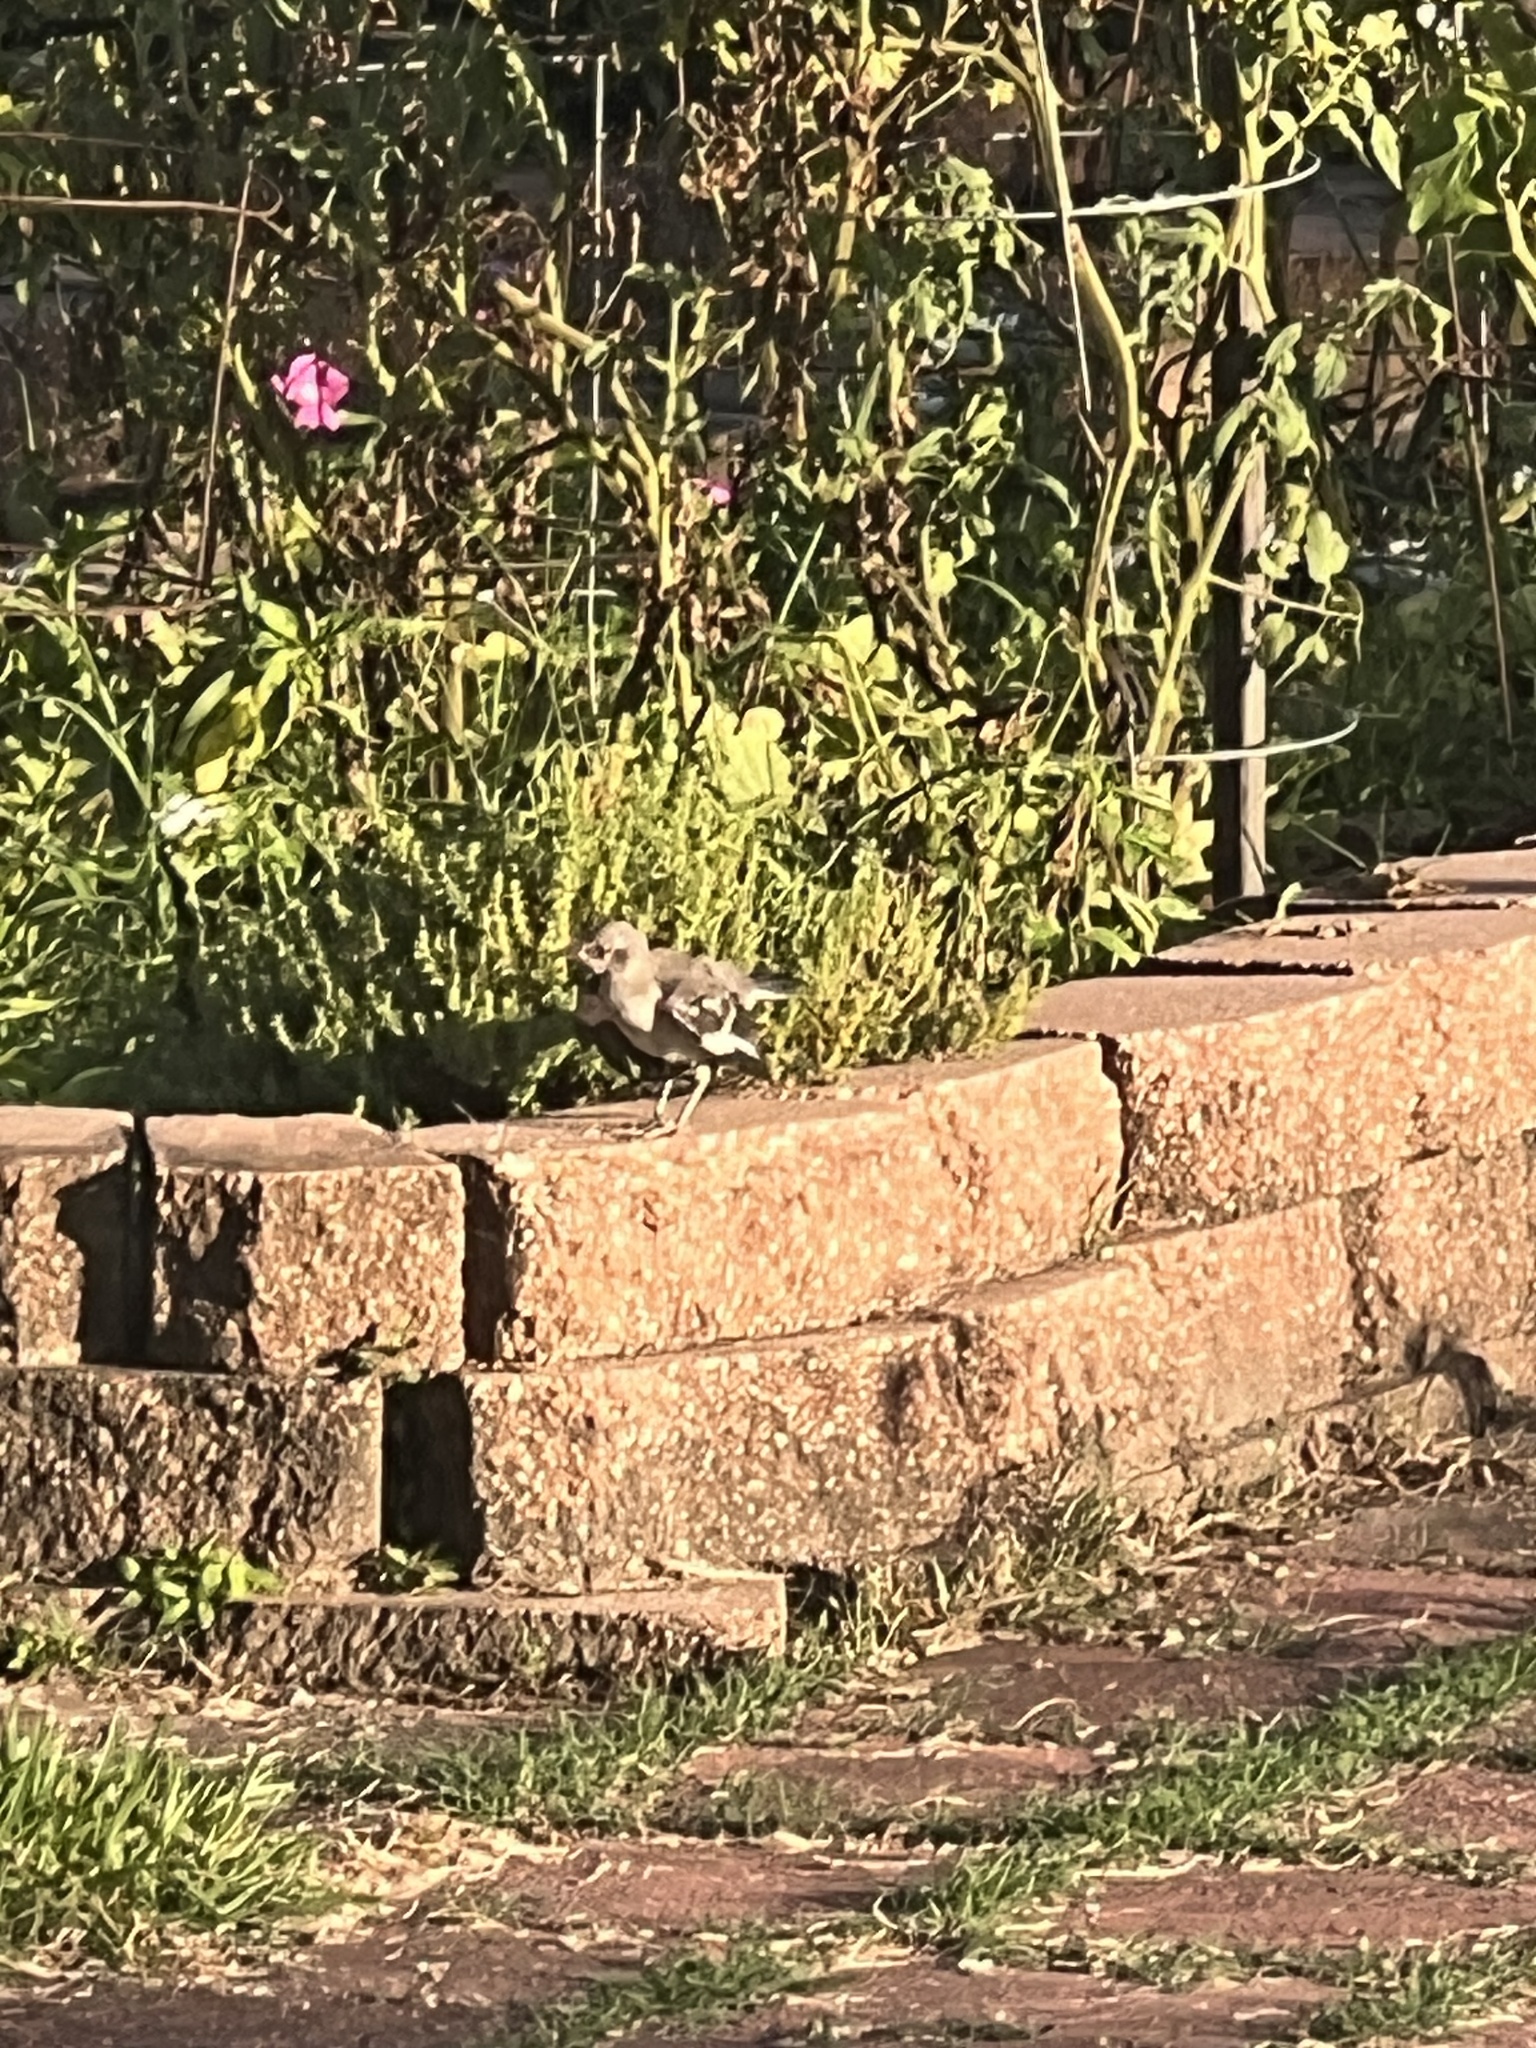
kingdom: Animalia
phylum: Chordata
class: Aves
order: Passeriformes
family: Mimidae
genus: Mimus
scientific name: Mimus polyglottos
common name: Northern mockingbird
